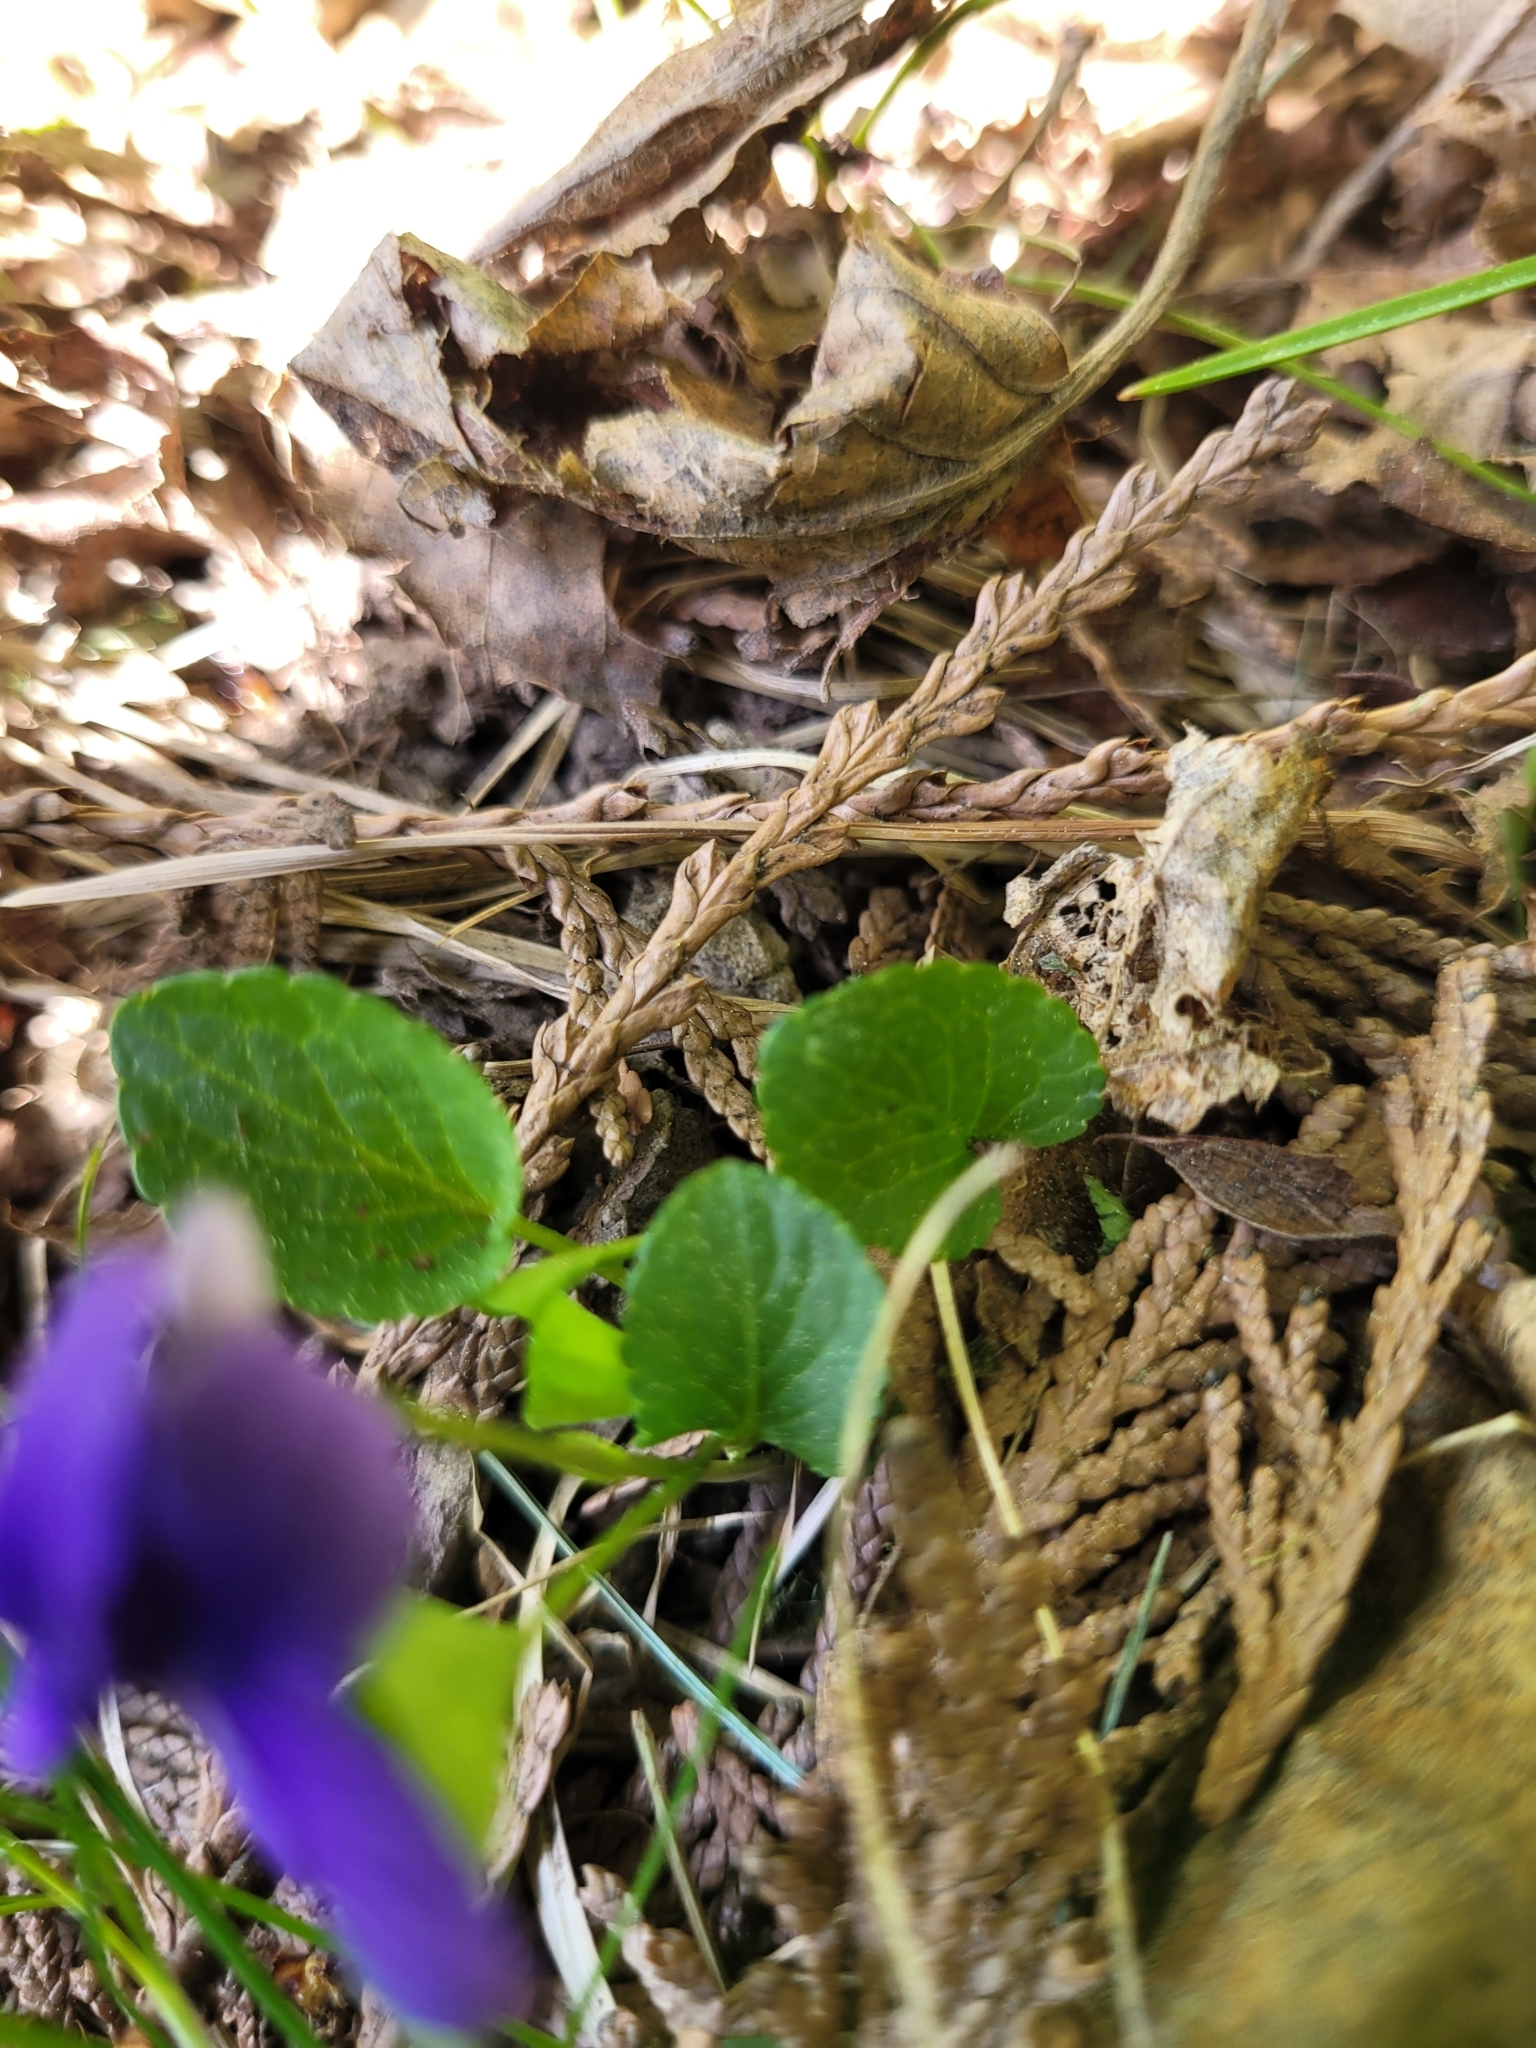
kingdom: Plantae
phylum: Tracheophyta
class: Magnoliopsida
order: Malpighiales
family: Violaceae
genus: Viola
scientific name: Viola adunca
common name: Sand violet
